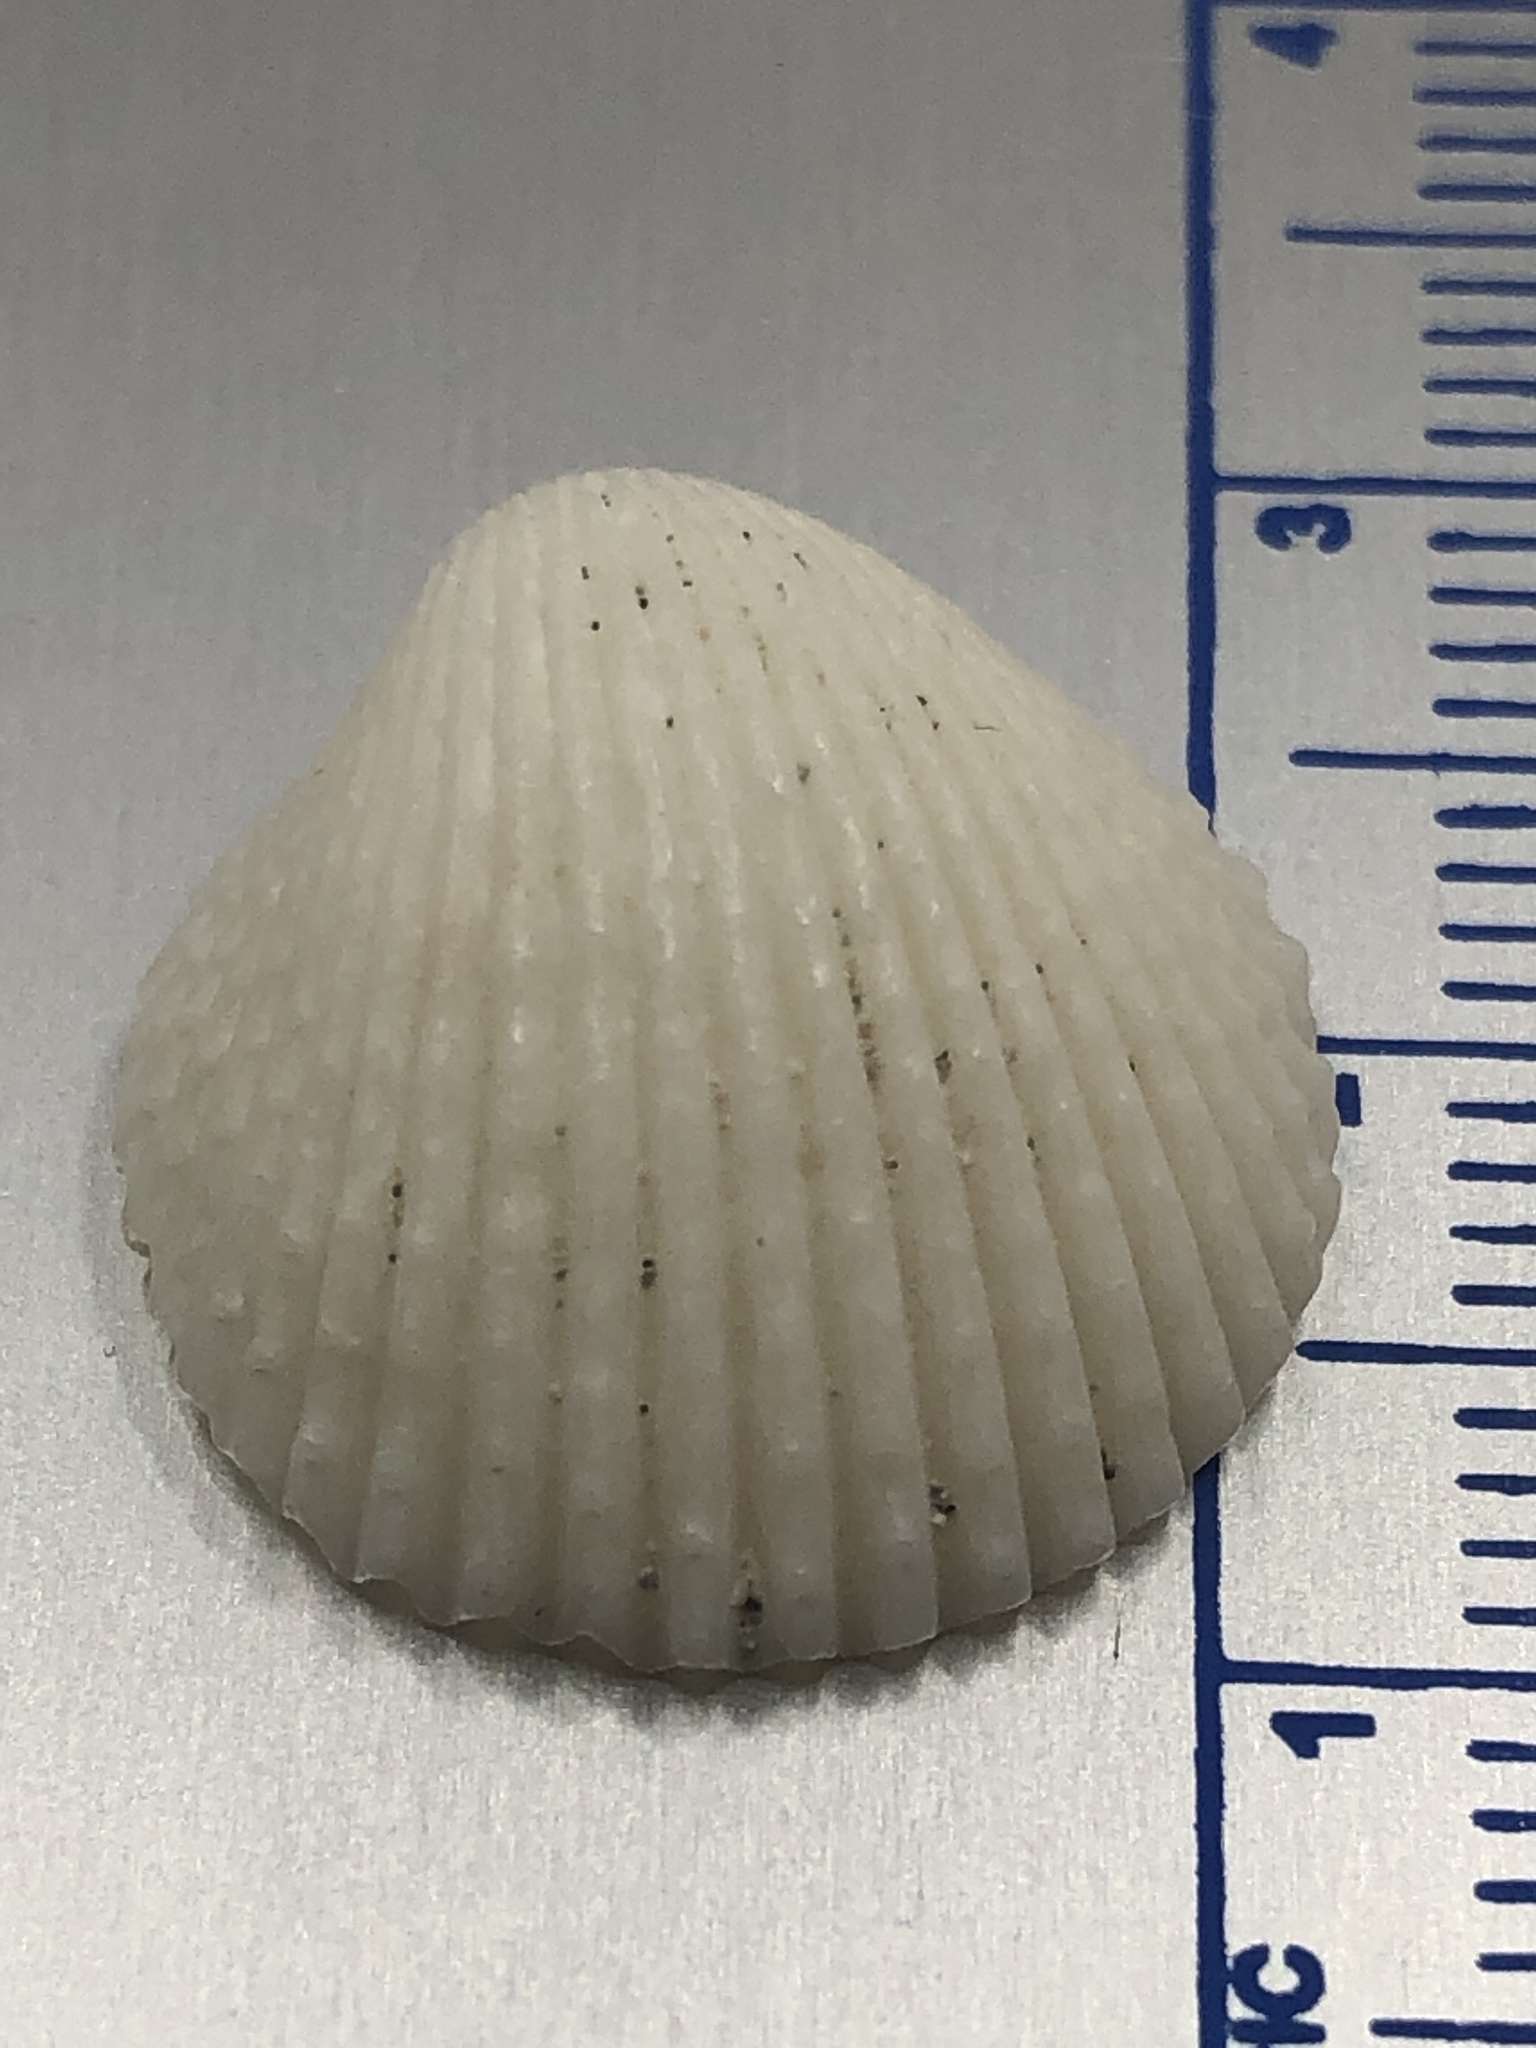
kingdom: Animalia
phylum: Mollusca
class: Bivalvia
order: Cardiida
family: Cardiidae
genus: Dallocardia
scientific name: Dallocardia muricata
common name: Yellow pricklycockle
